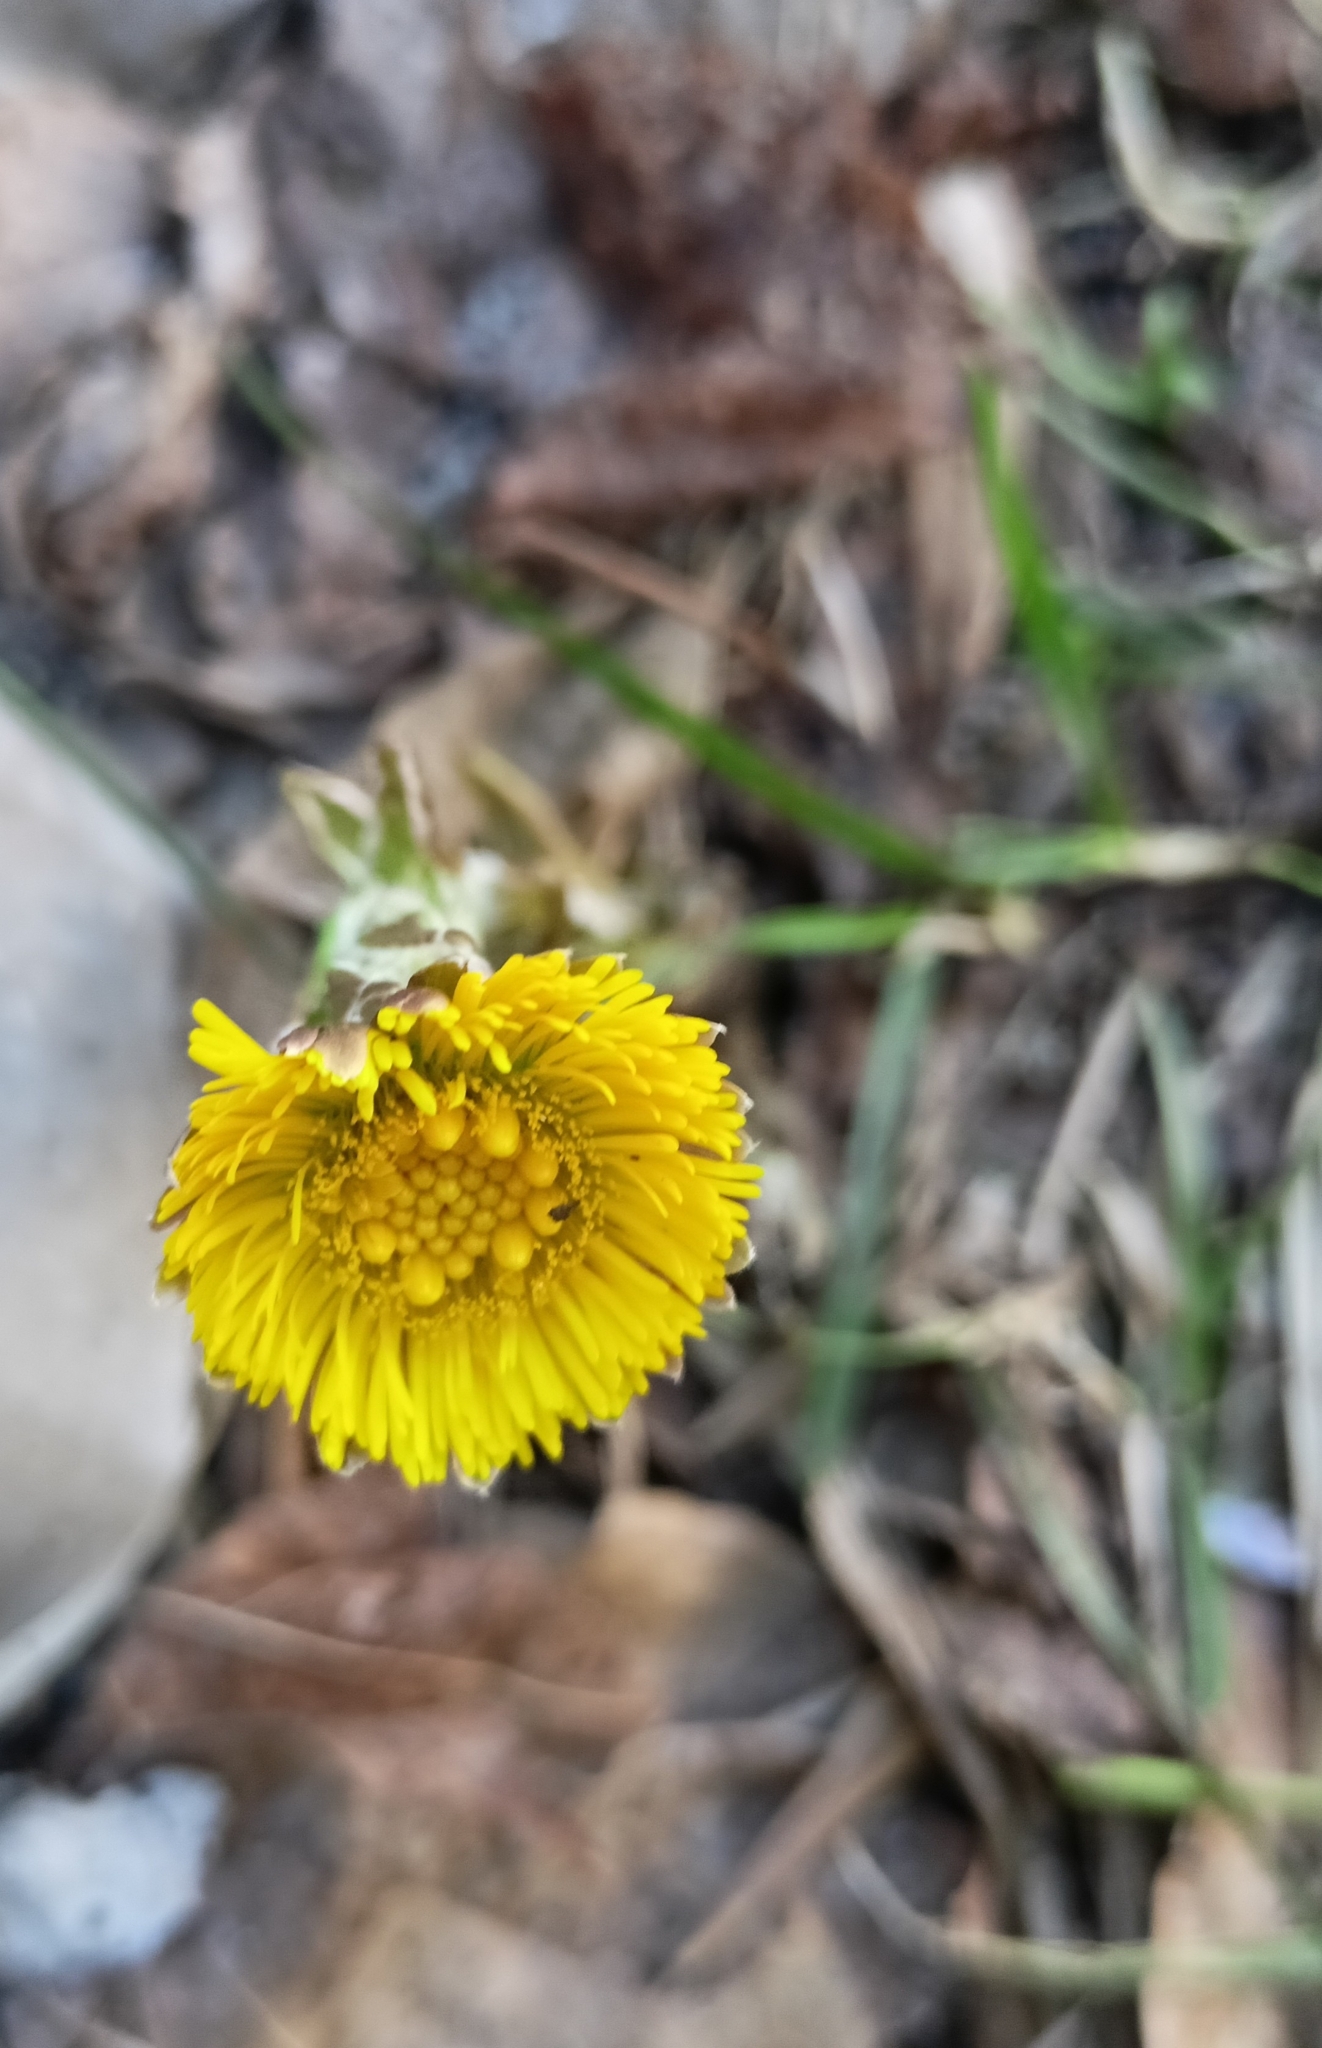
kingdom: Plantae
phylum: Tracheophyta
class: Magnoliopsida
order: Asterales
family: Asteraceae
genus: Tussilago
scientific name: Tussilago farfara
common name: Coltsfoot
